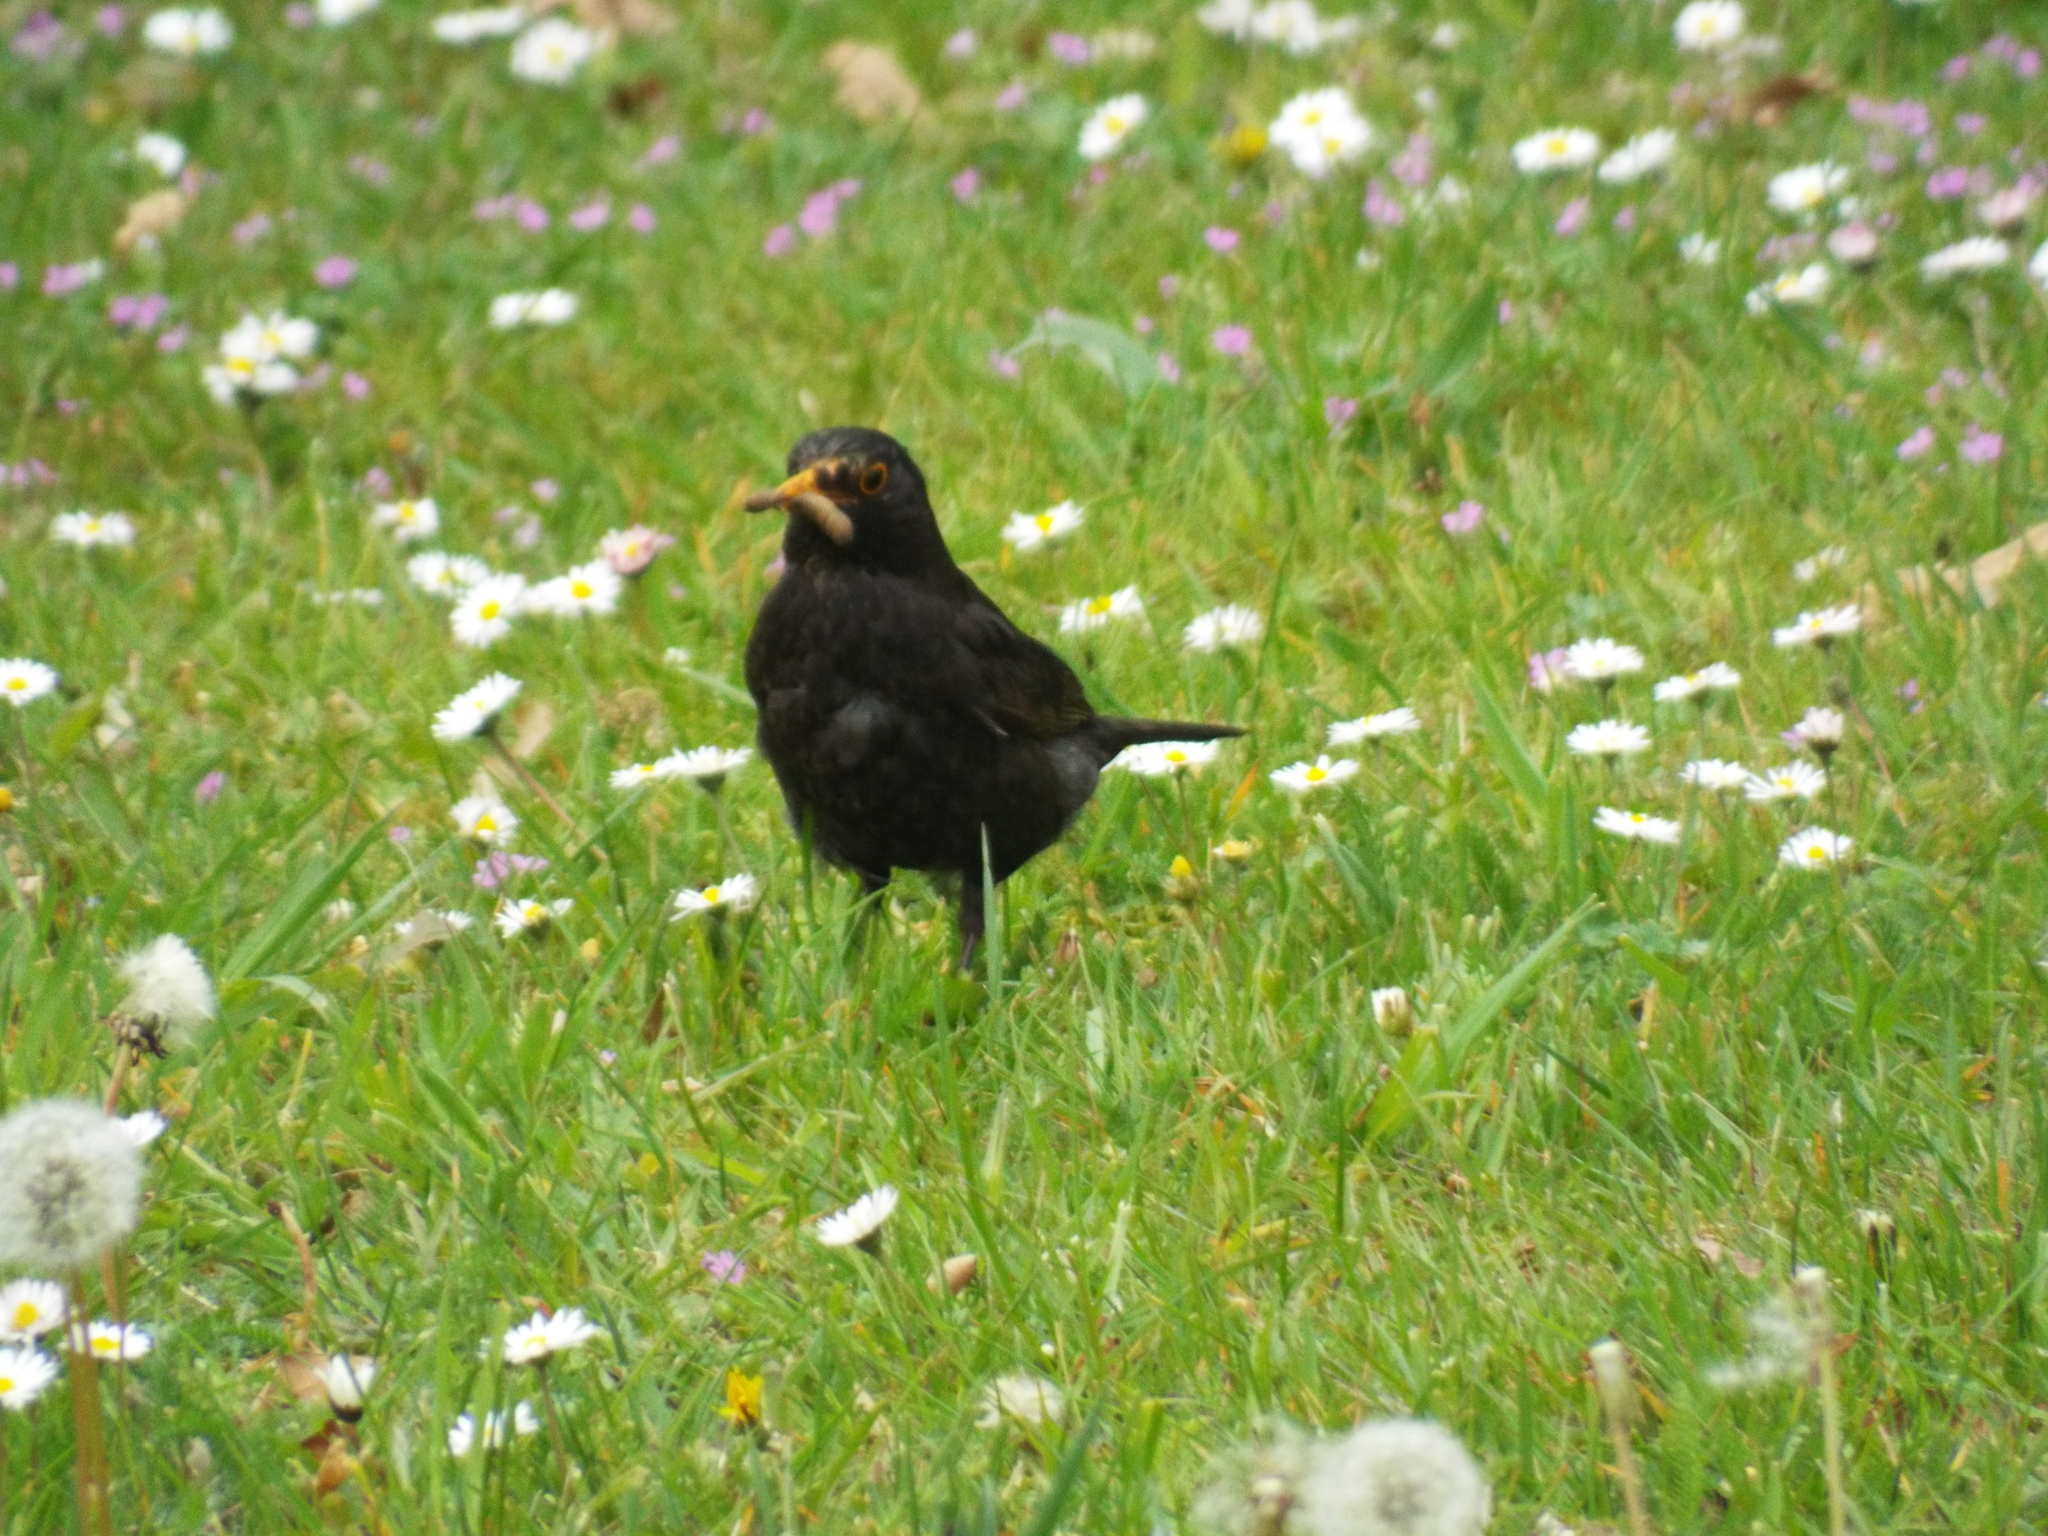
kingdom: Animalia
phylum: Chordata
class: Aves
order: Passeriformes
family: Turdidae
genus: Turdus
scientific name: Turdus merula
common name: Common blackbird
